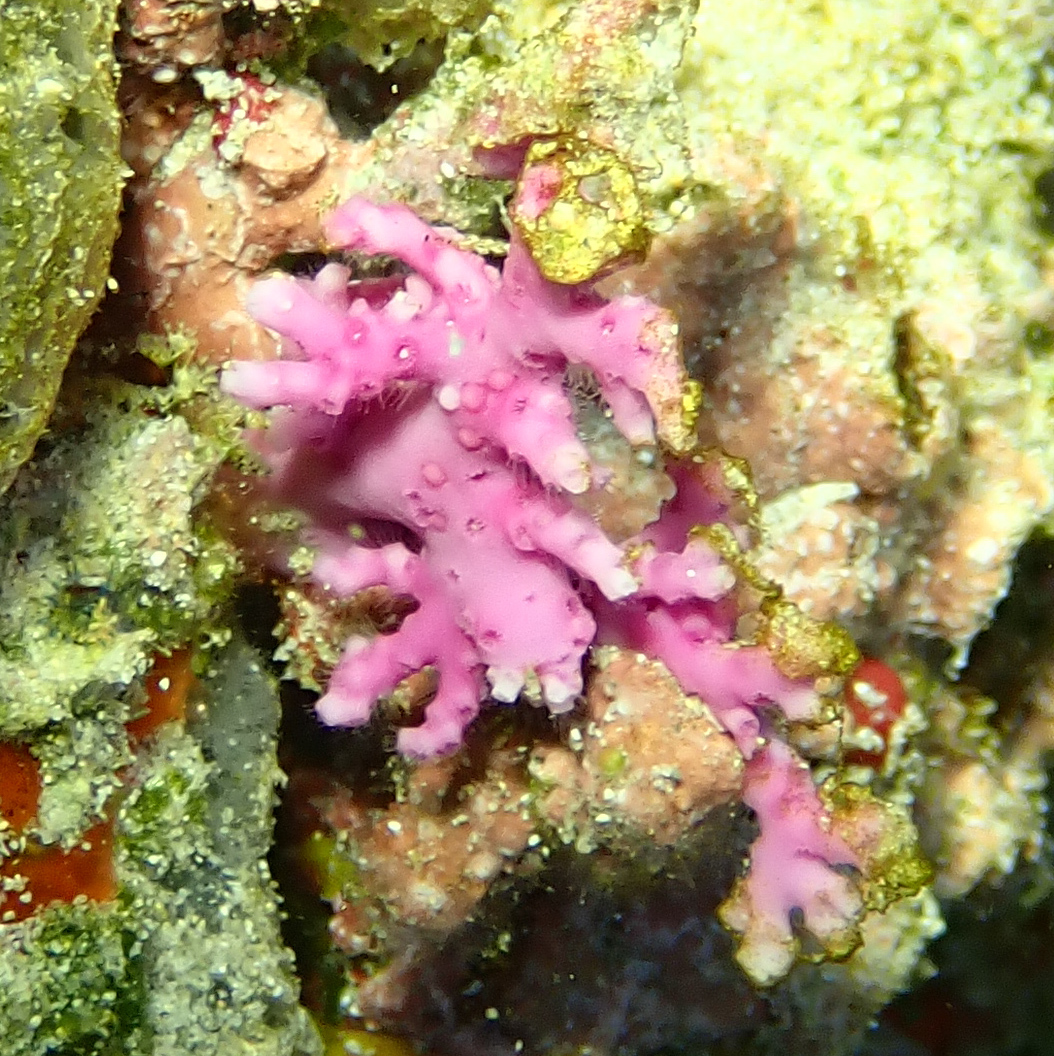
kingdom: Animalia
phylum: Cnidaria
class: Hydrozoa
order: Anthoathecata
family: Stylasteridae
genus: Stylaster
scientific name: Stylaster roseus
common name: Rose lace coral
